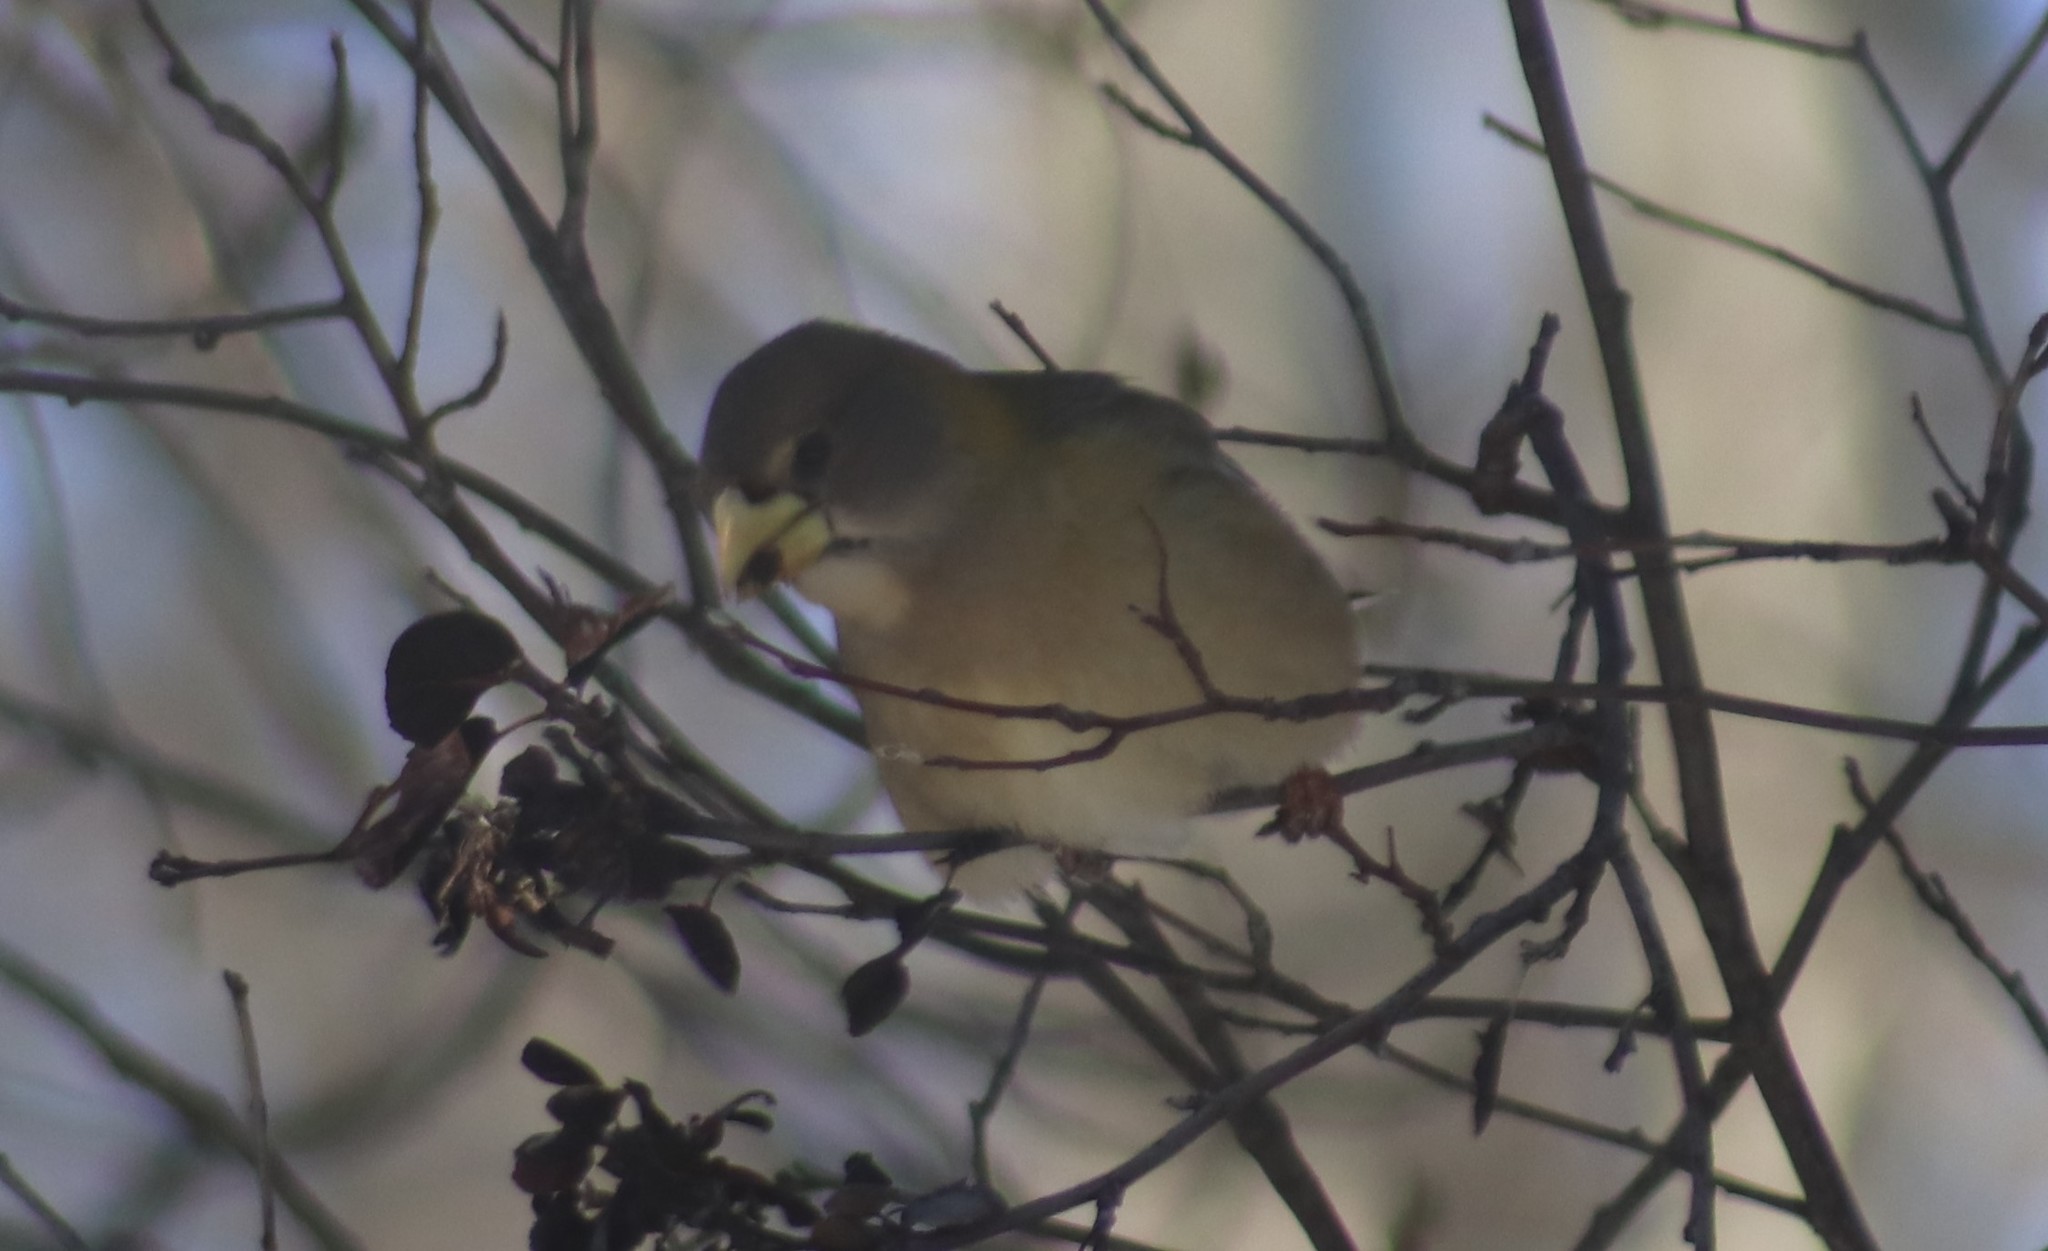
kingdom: Animalia
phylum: Chordata
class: Aves
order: Passeriformes
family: Fringillidae
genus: Hesperiphona
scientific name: Hesperiphona vespertina
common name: Evening grosbeak
